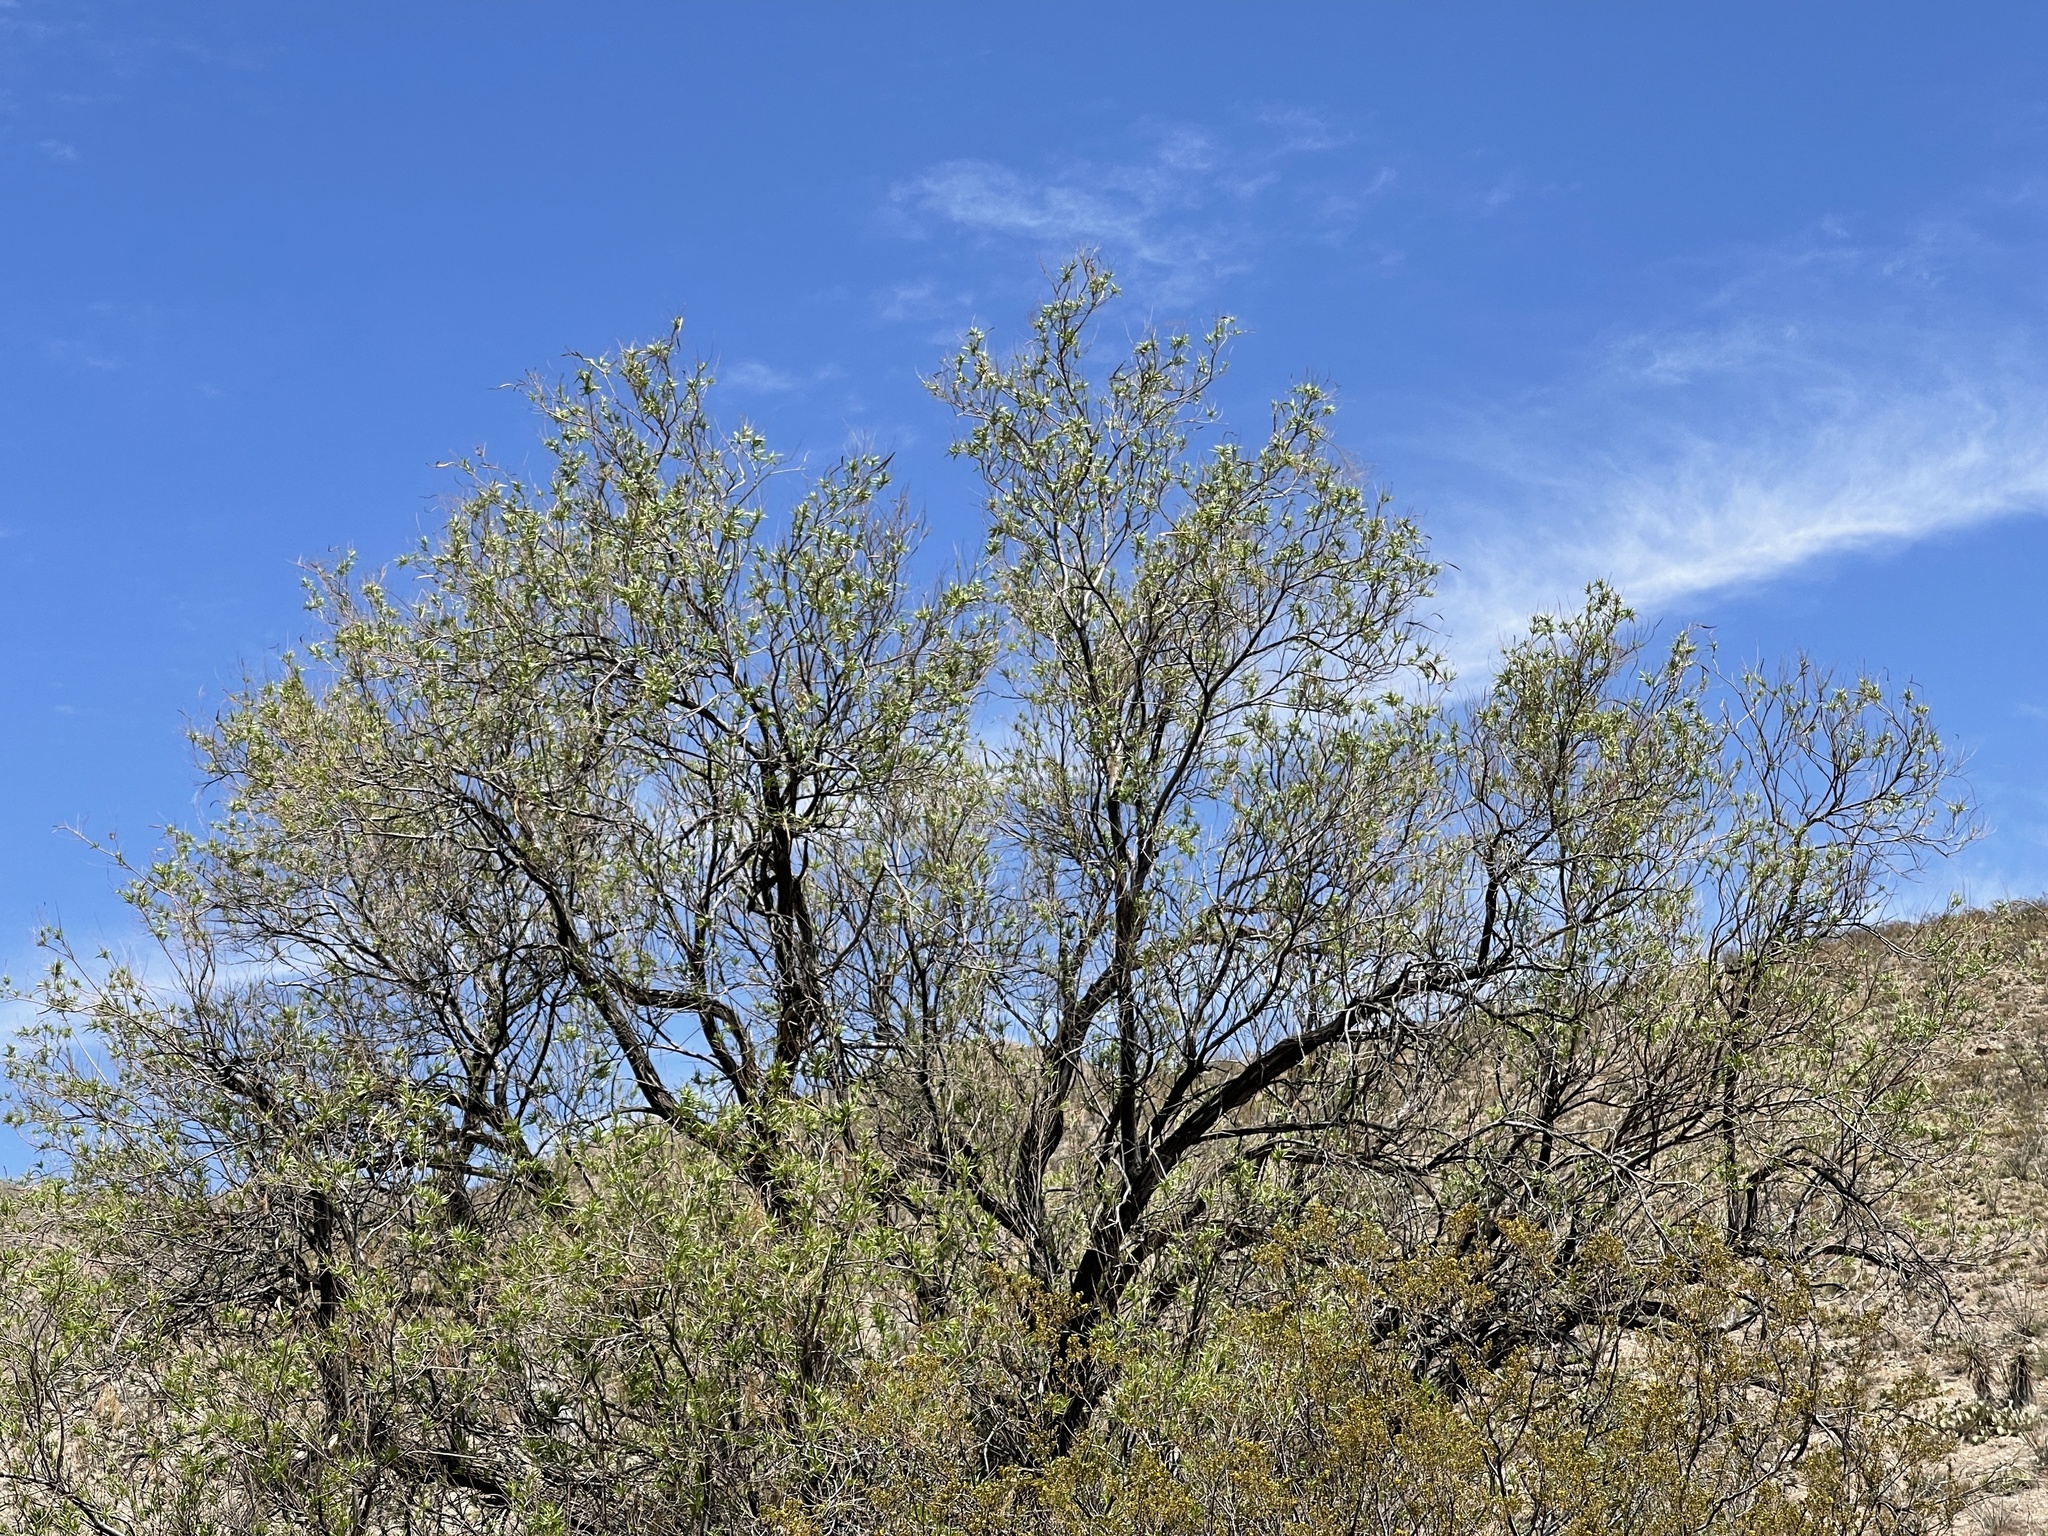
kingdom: Plantae
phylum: Tracheophyta
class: Magnoliopsida
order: Lamiales
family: Bignoniaceae
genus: Chilopsis
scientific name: Chilopsis linearis
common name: Desert-willow
